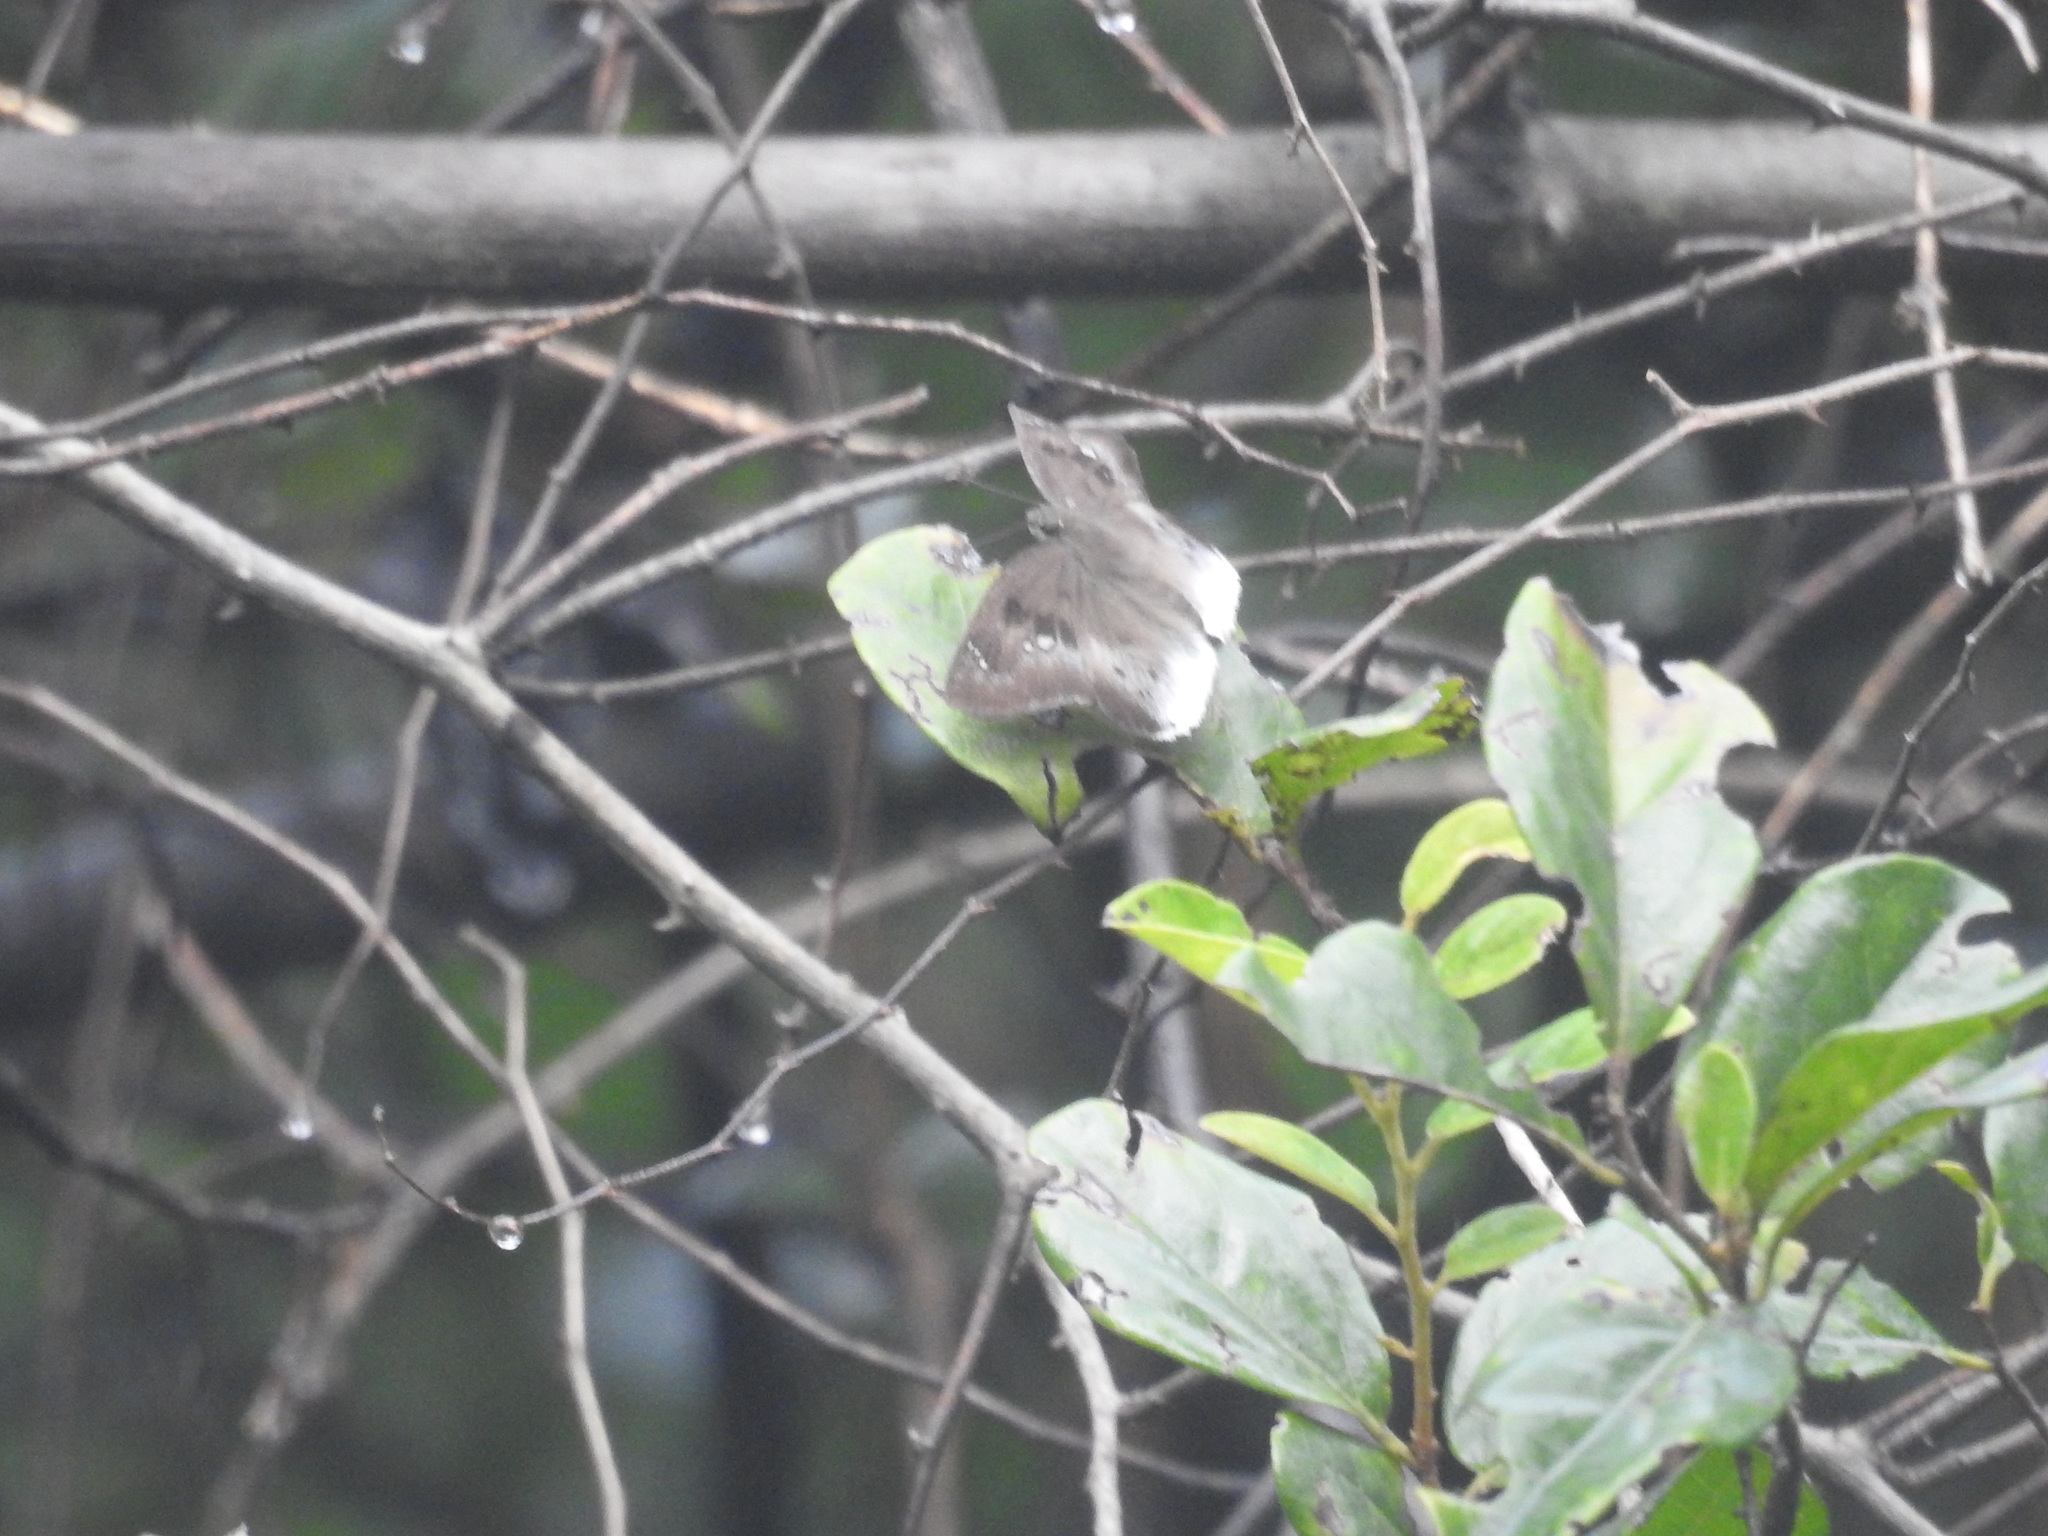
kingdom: Animalia
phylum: Arthropoda
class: Insecta
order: Lepidoptera
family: Hesperiidae
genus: Tagiades
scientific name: Tagiades japetus
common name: Pied flat
